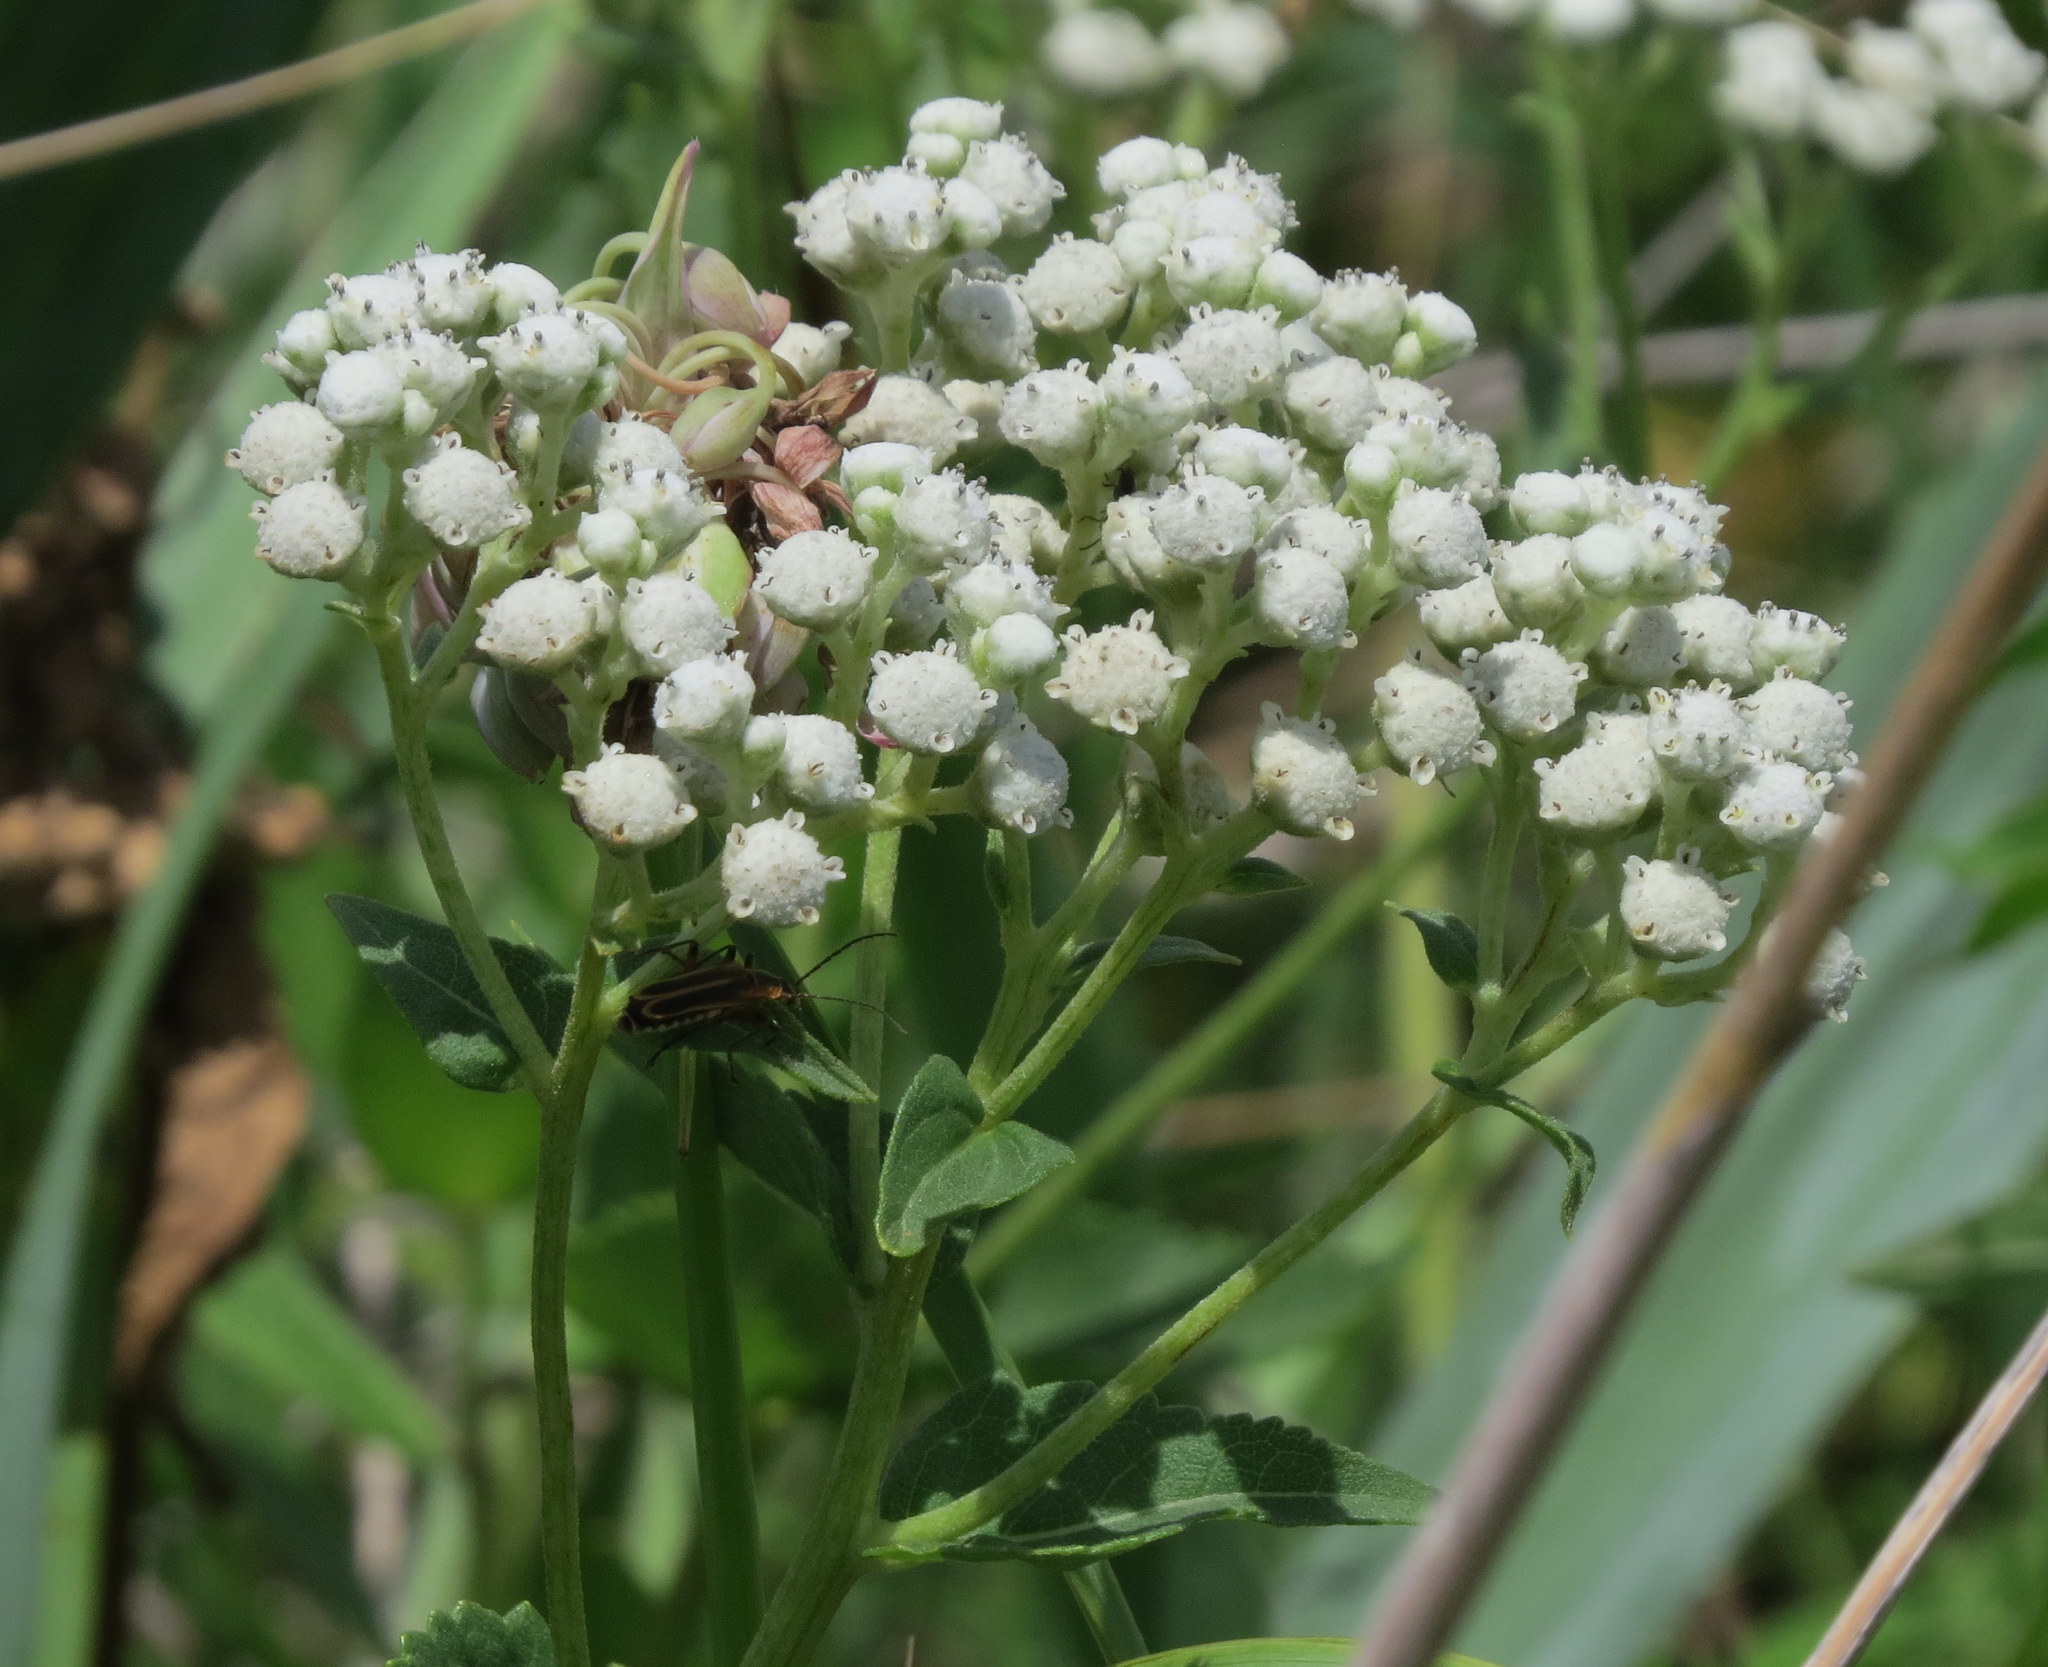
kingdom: Plantae
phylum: Tracheophyta
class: Magnoliopsida
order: Asterales
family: Asteraceae
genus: Parthenium
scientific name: Parthenium integrifolium
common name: American feverfew
